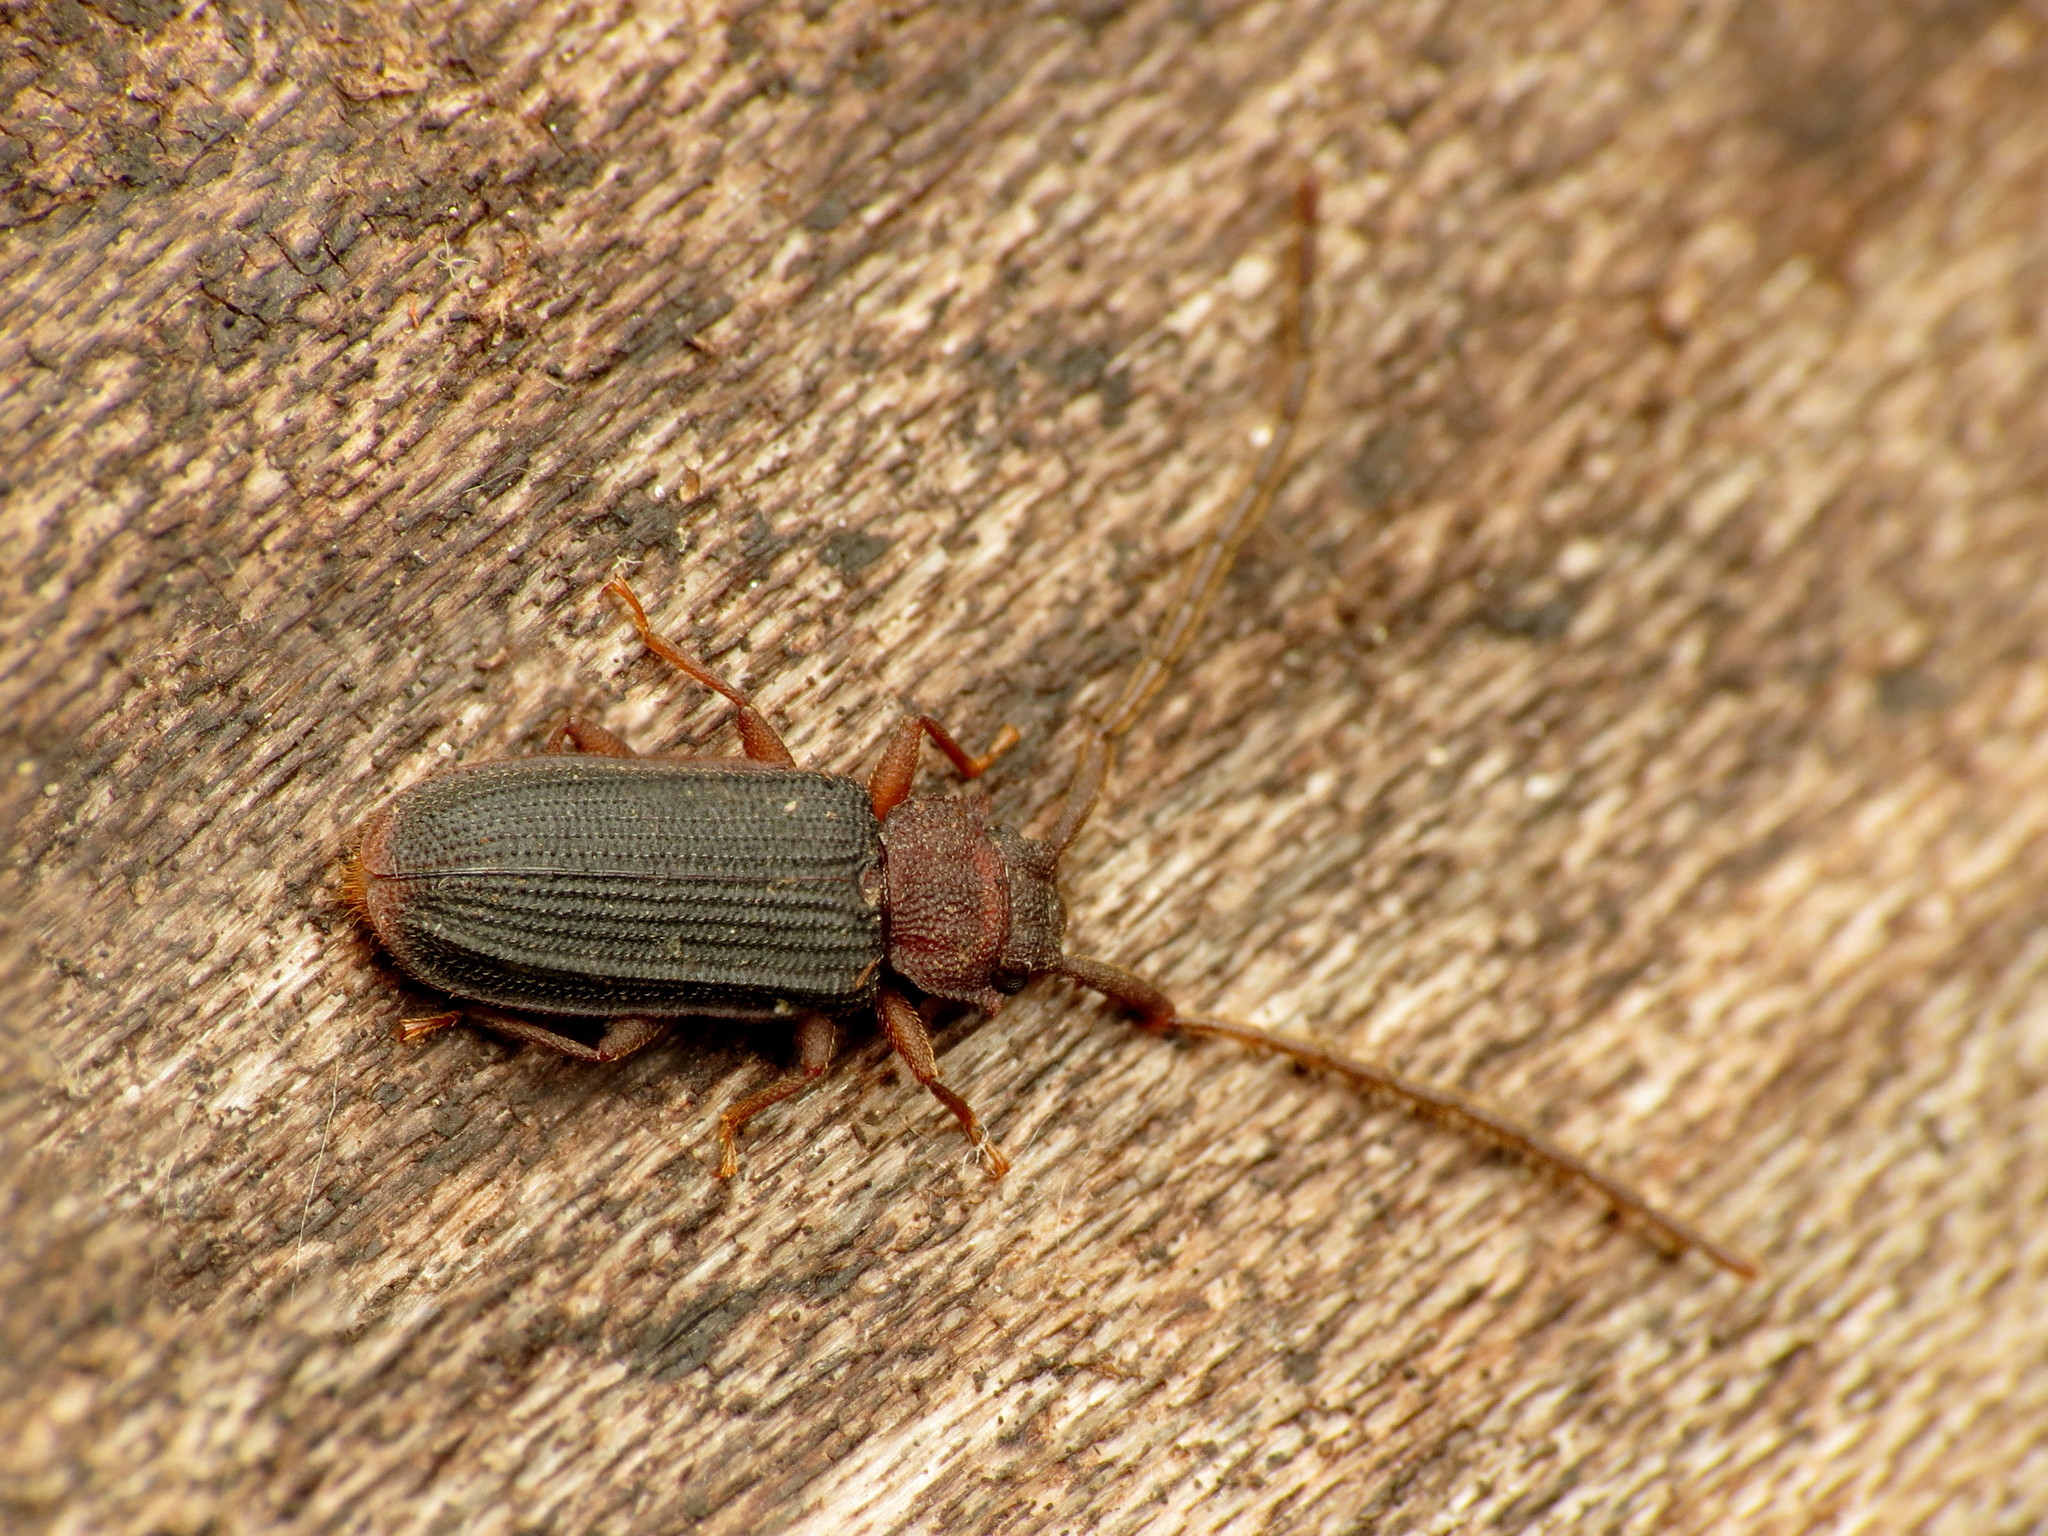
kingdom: Animalia
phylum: Arthropoda
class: Insecta
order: Coleoptera
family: Silvanidae
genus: Uleiota
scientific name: Uleiota dubia
